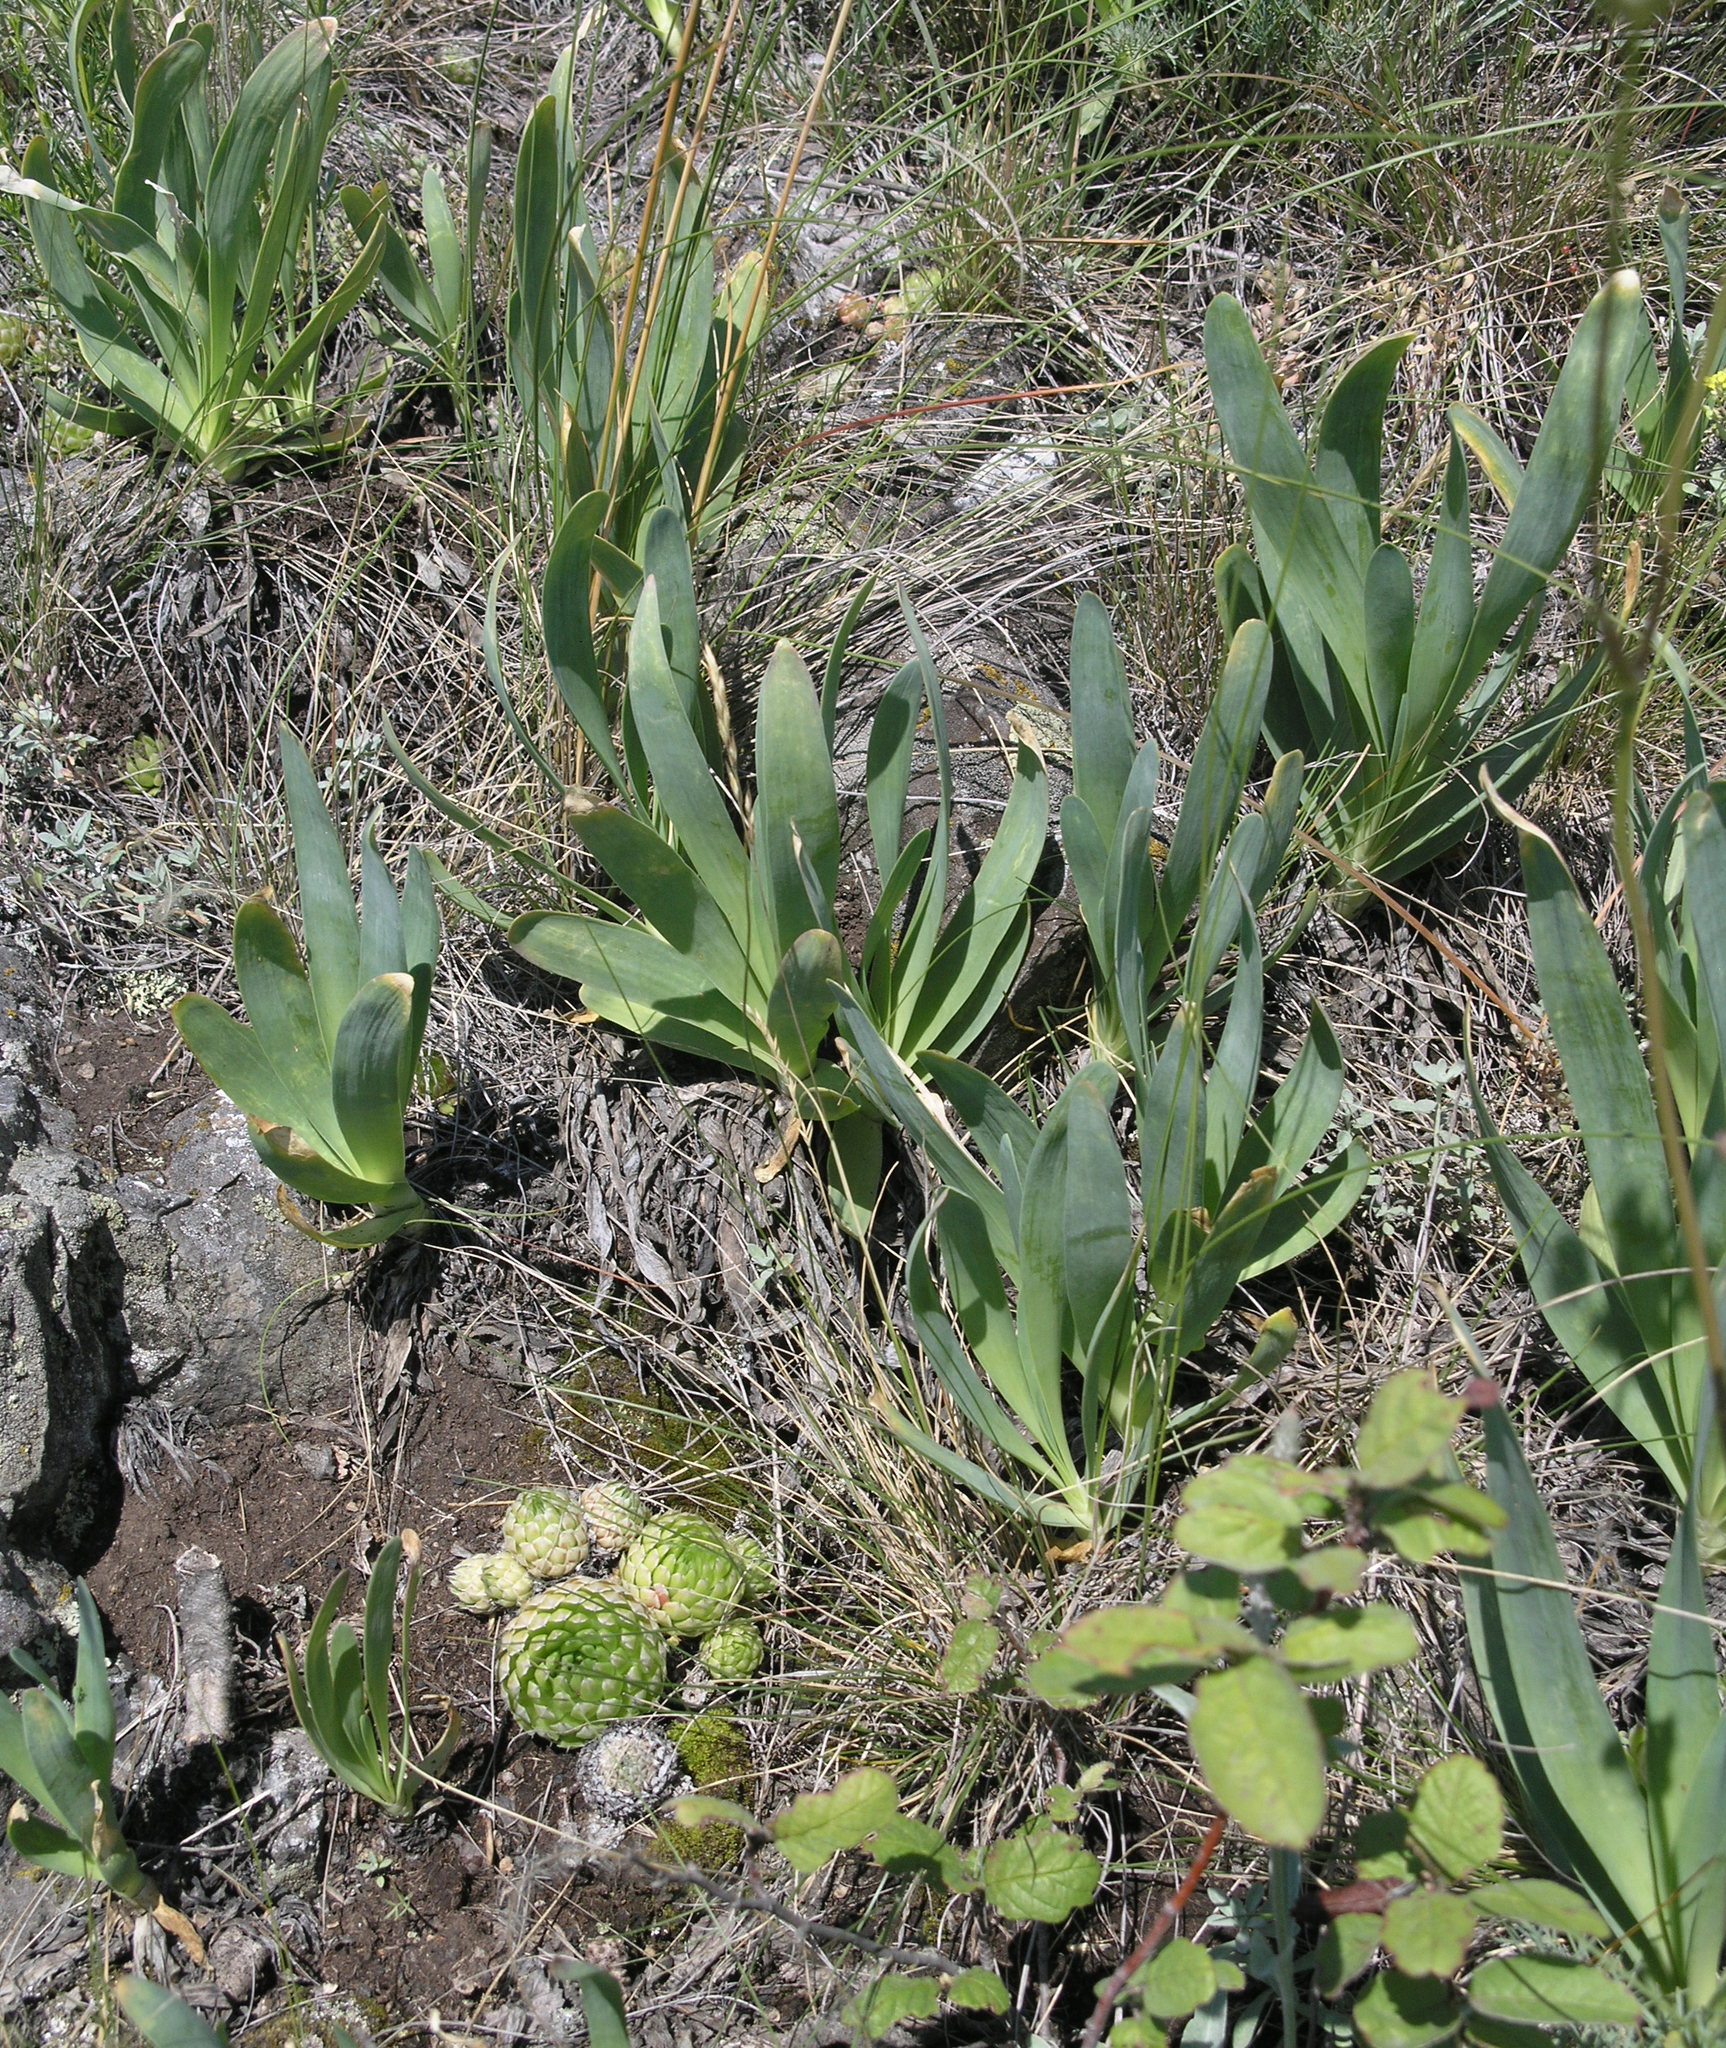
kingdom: Plantae
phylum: Tracheophyta
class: Magnoliopsida
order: Saxifragales
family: Crassulaceae
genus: Orostachys
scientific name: Orostachys spinosa
